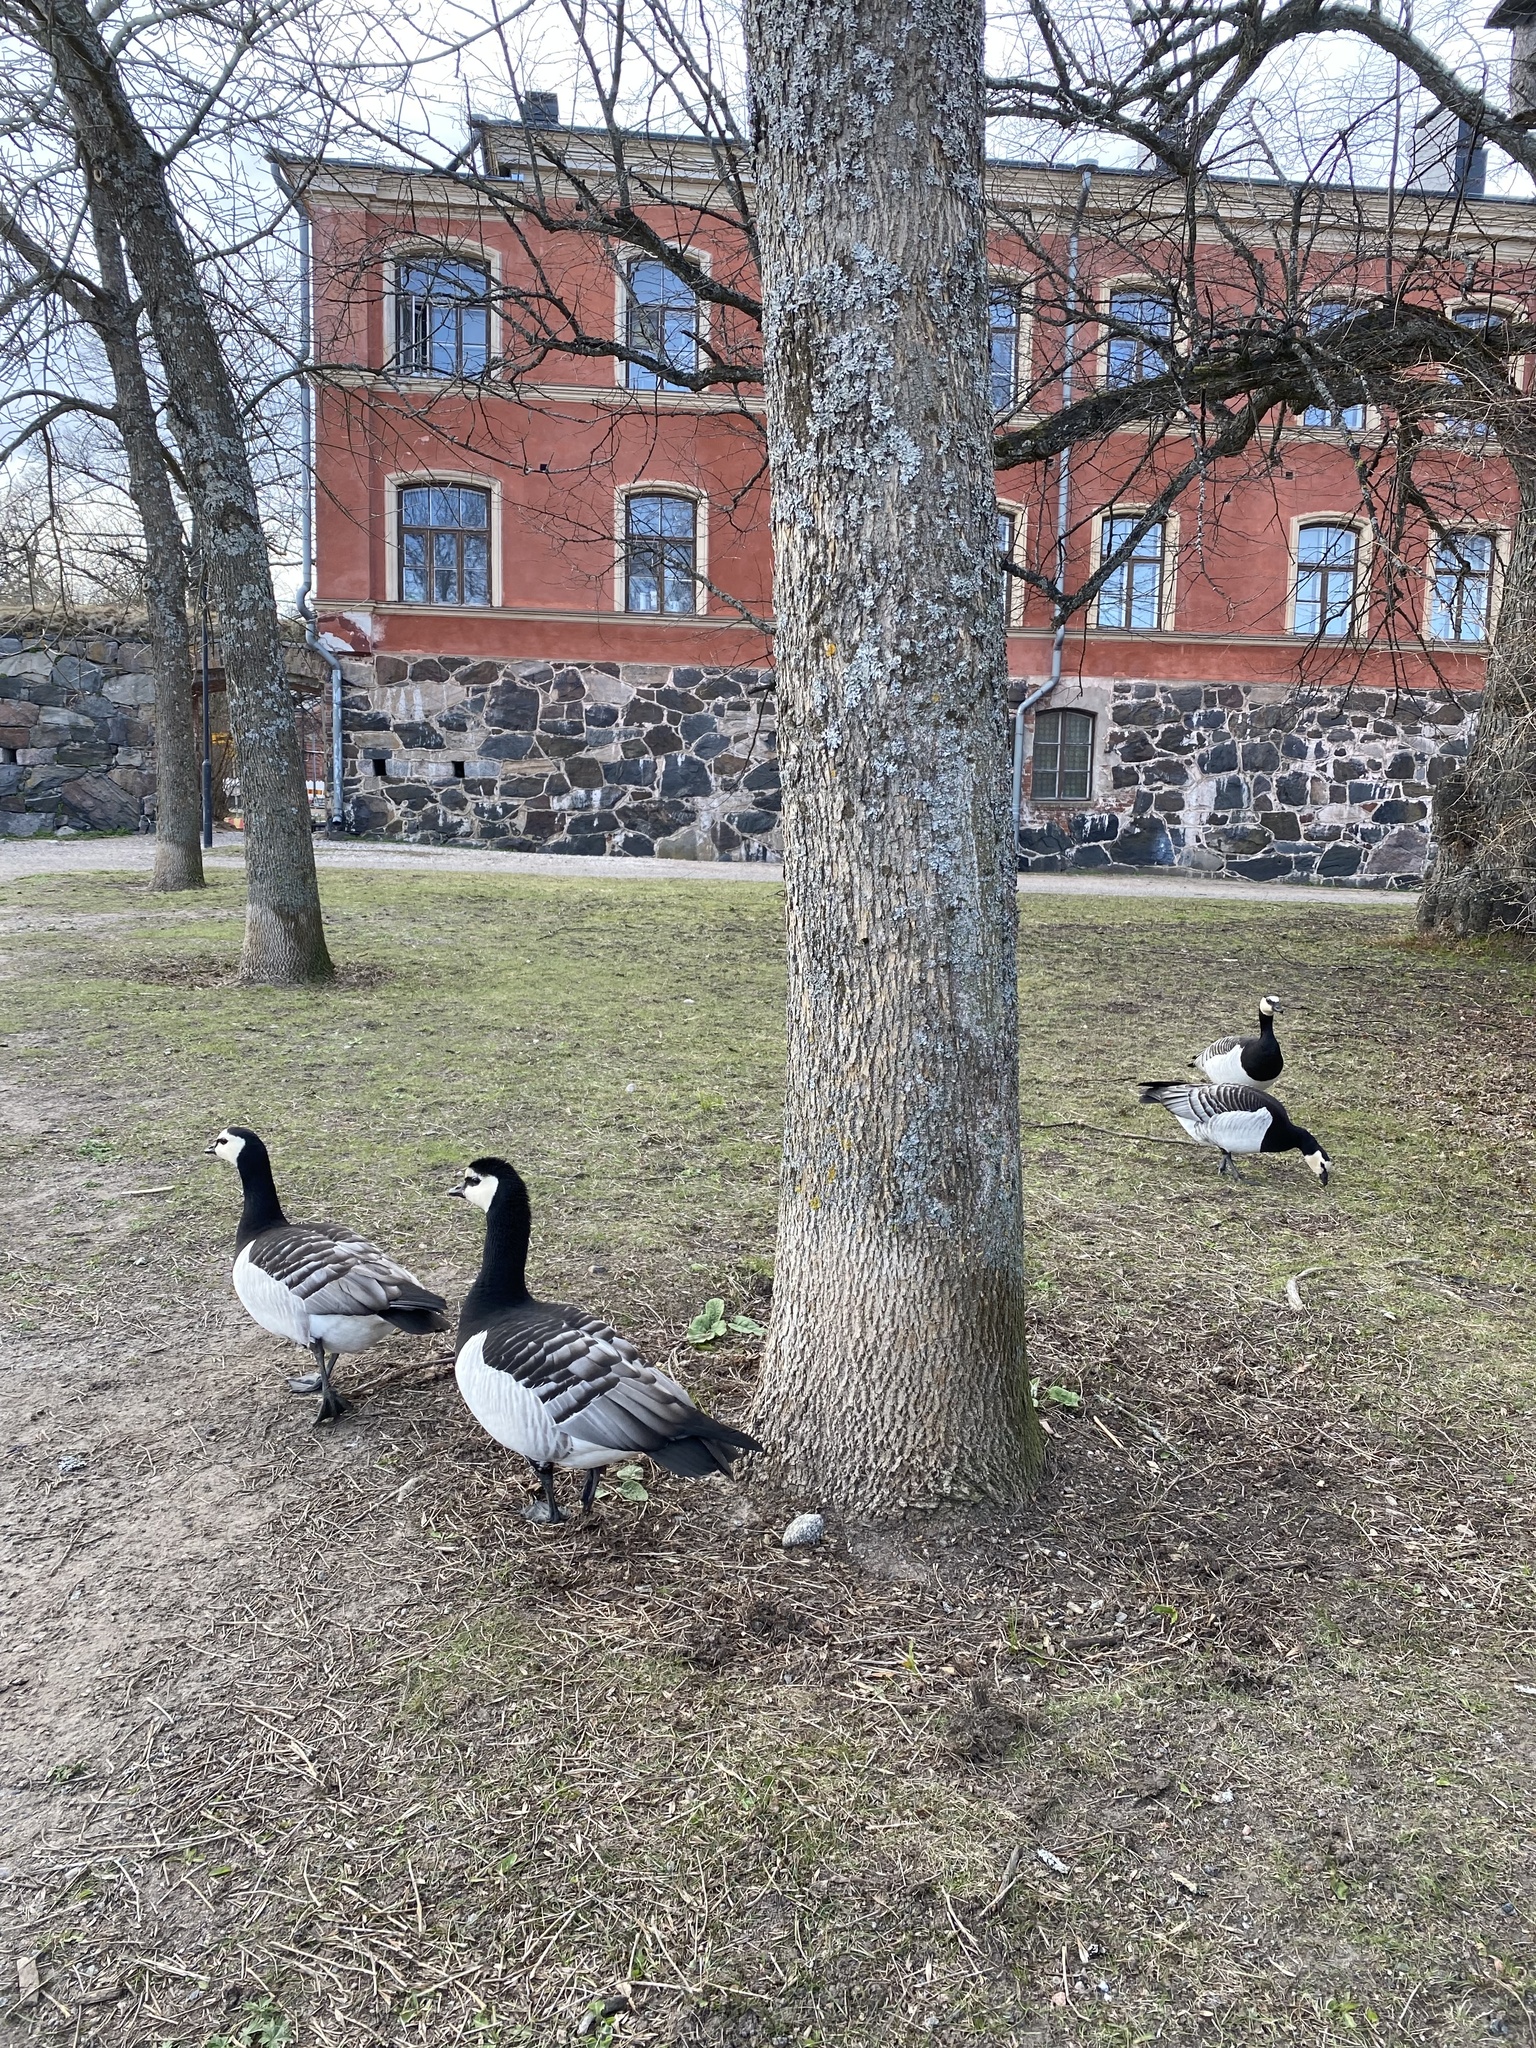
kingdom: Animalia
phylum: Chordata
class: Aves
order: Anseriformes
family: Anatidae
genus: Branta
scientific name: Branta leucopsis
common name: Barnacle goose
